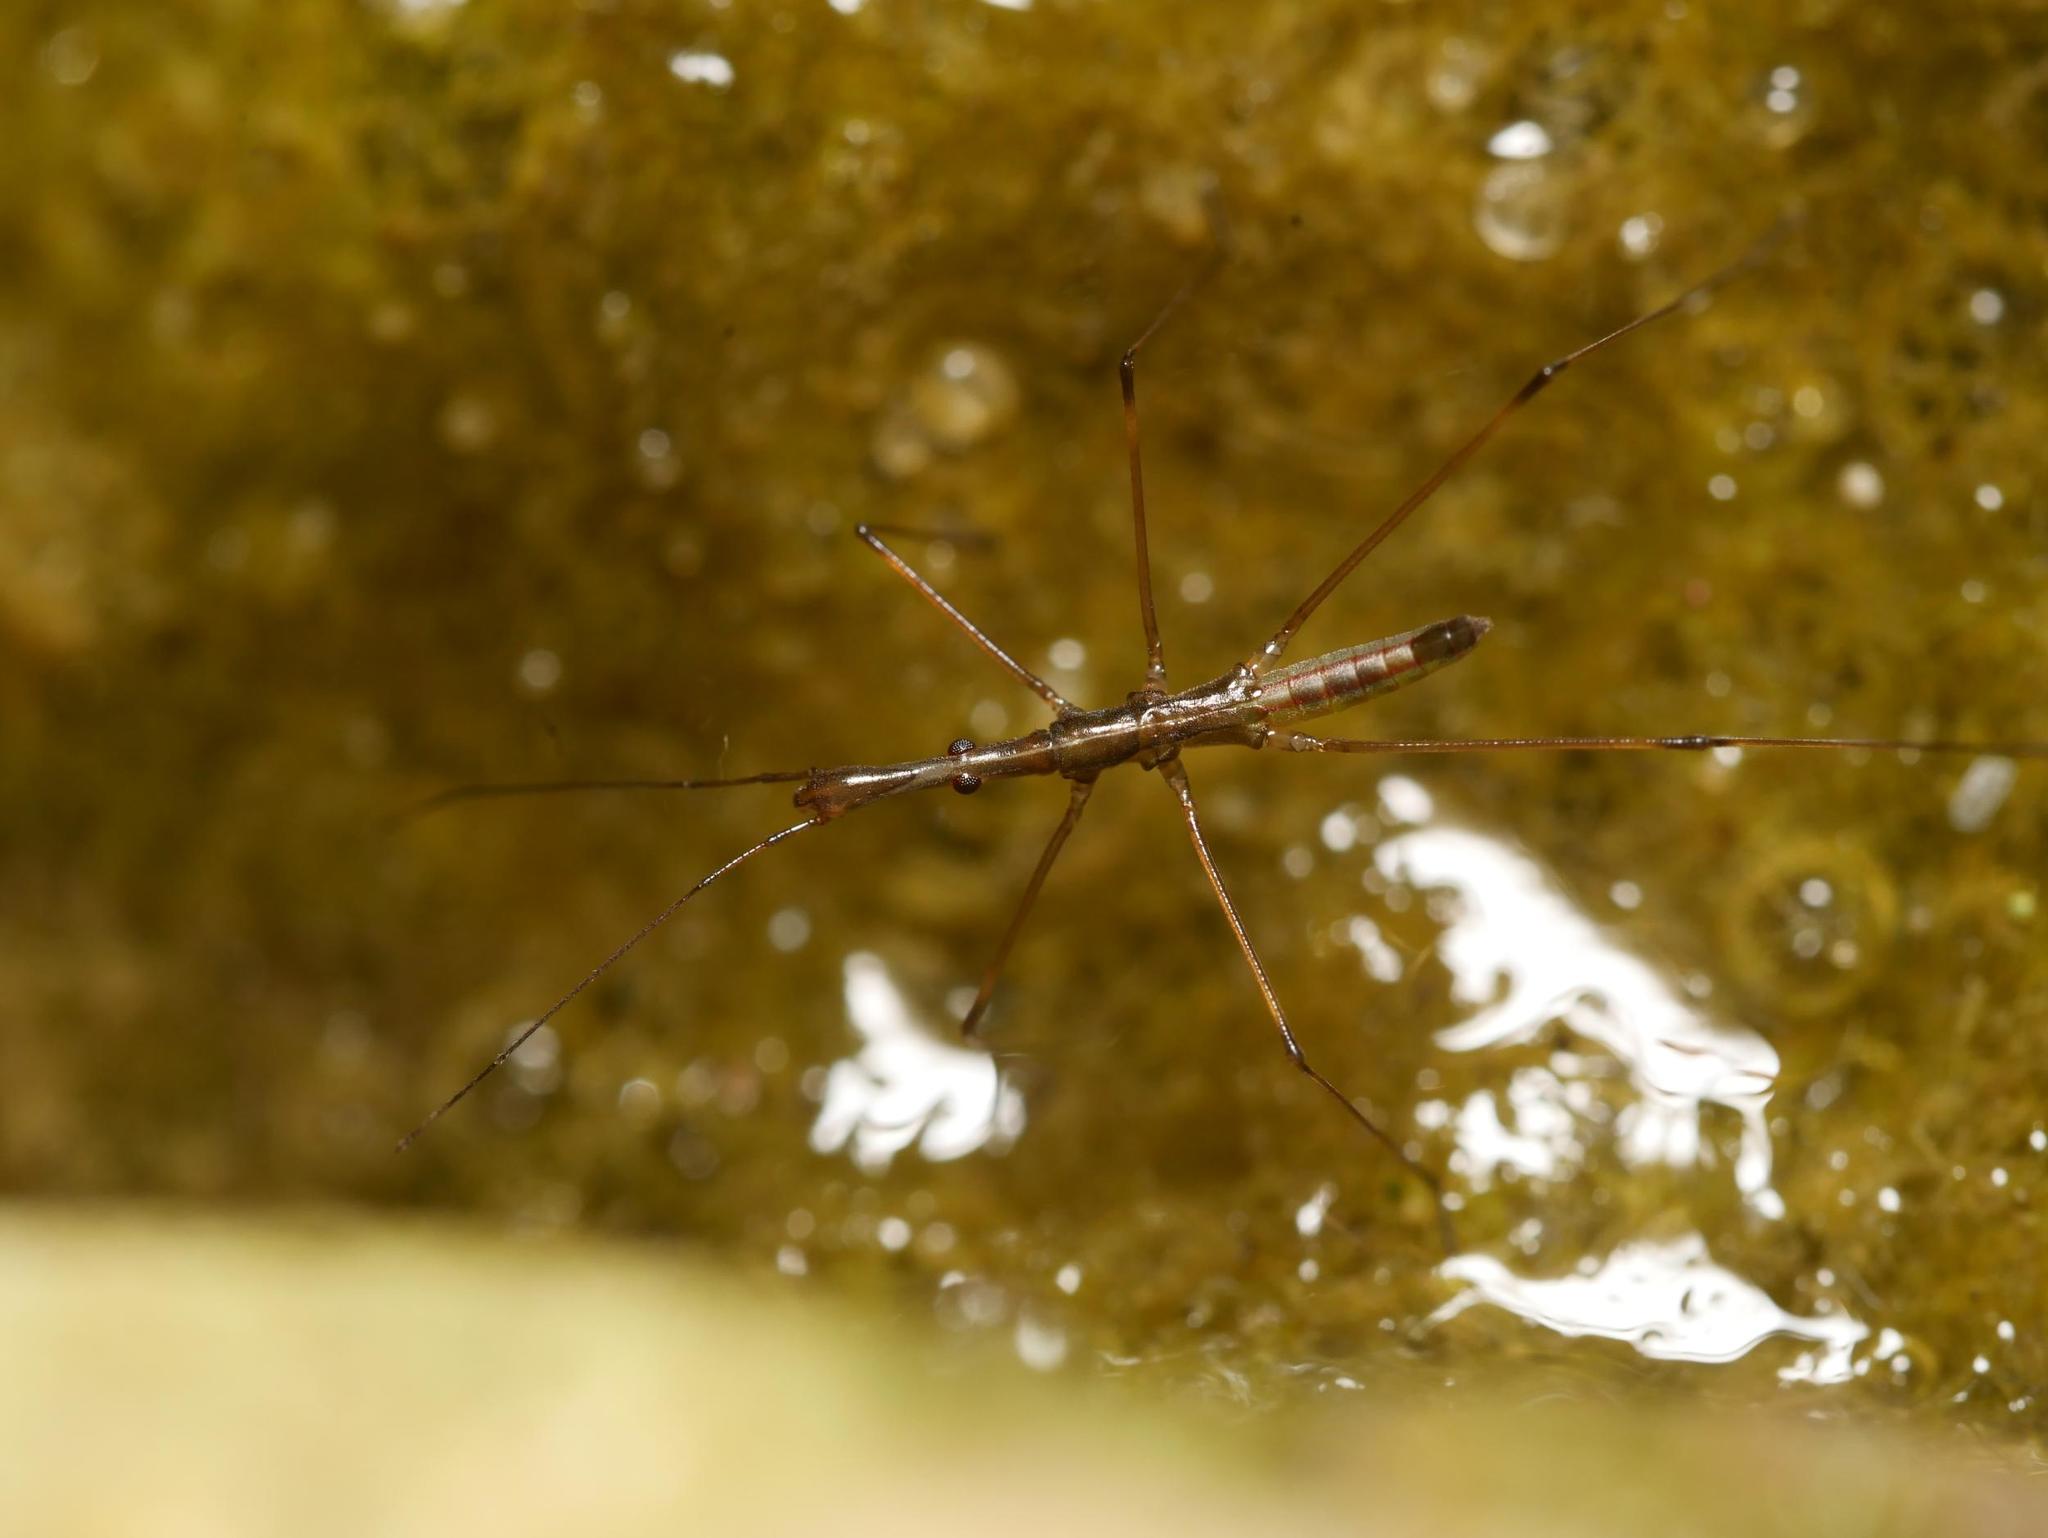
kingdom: Animalia
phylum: Arthropoda
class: Insecta
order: Hemiptera
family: Hydrometridae
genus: Hydrometra
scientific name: Hydrometra stagnorum
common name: Water measurer
